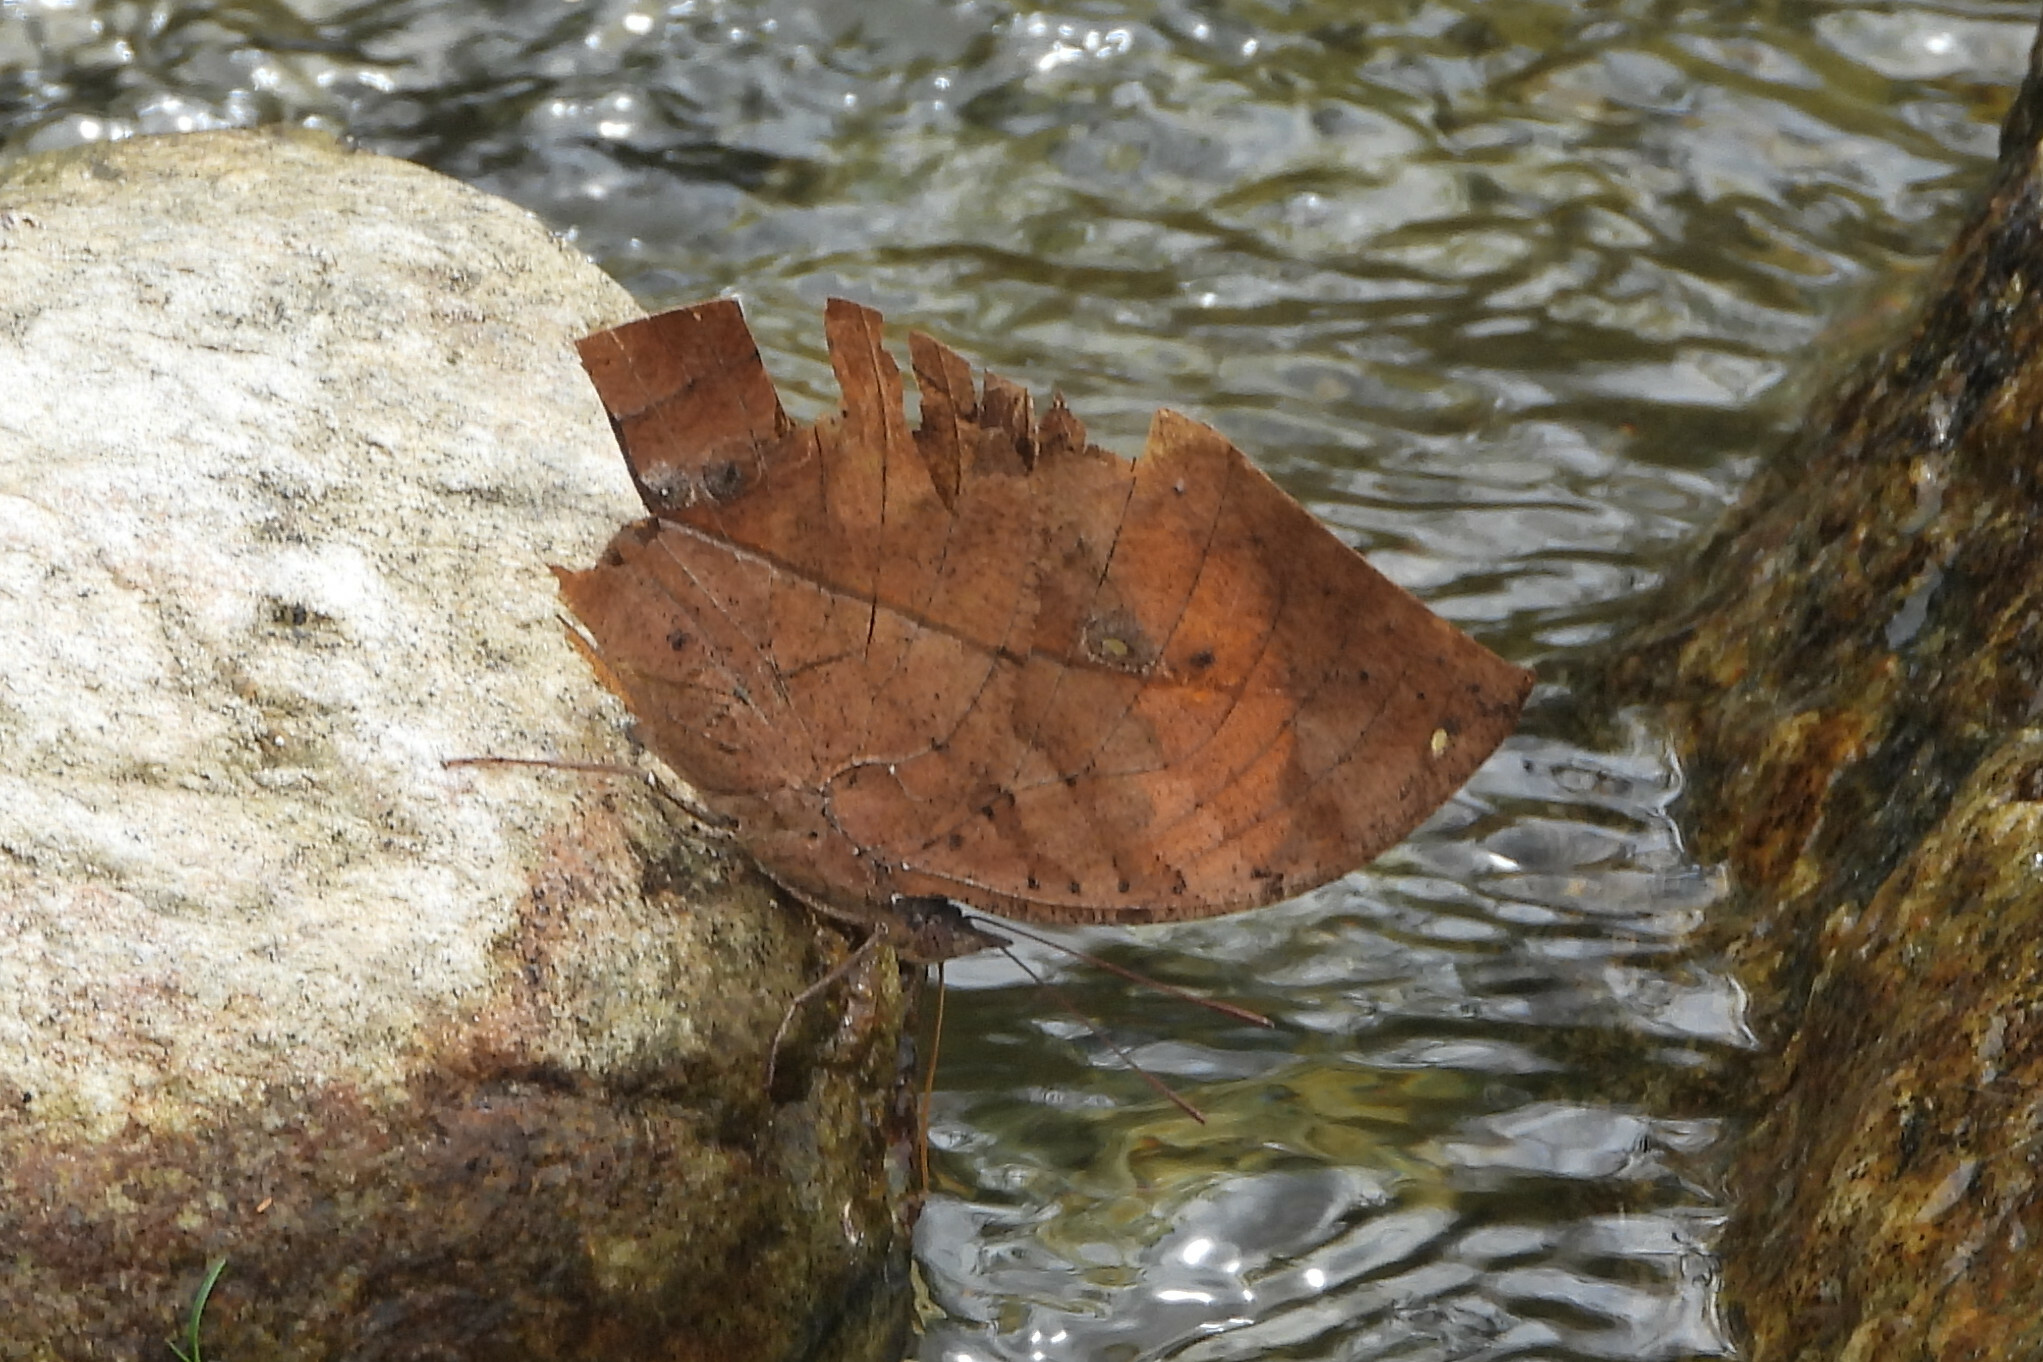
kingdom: Animalia
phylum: Arthropoda
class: Insecta
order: Lepidoptera
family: Nymphalidae
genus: Kallima
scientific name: Kallima inachus
